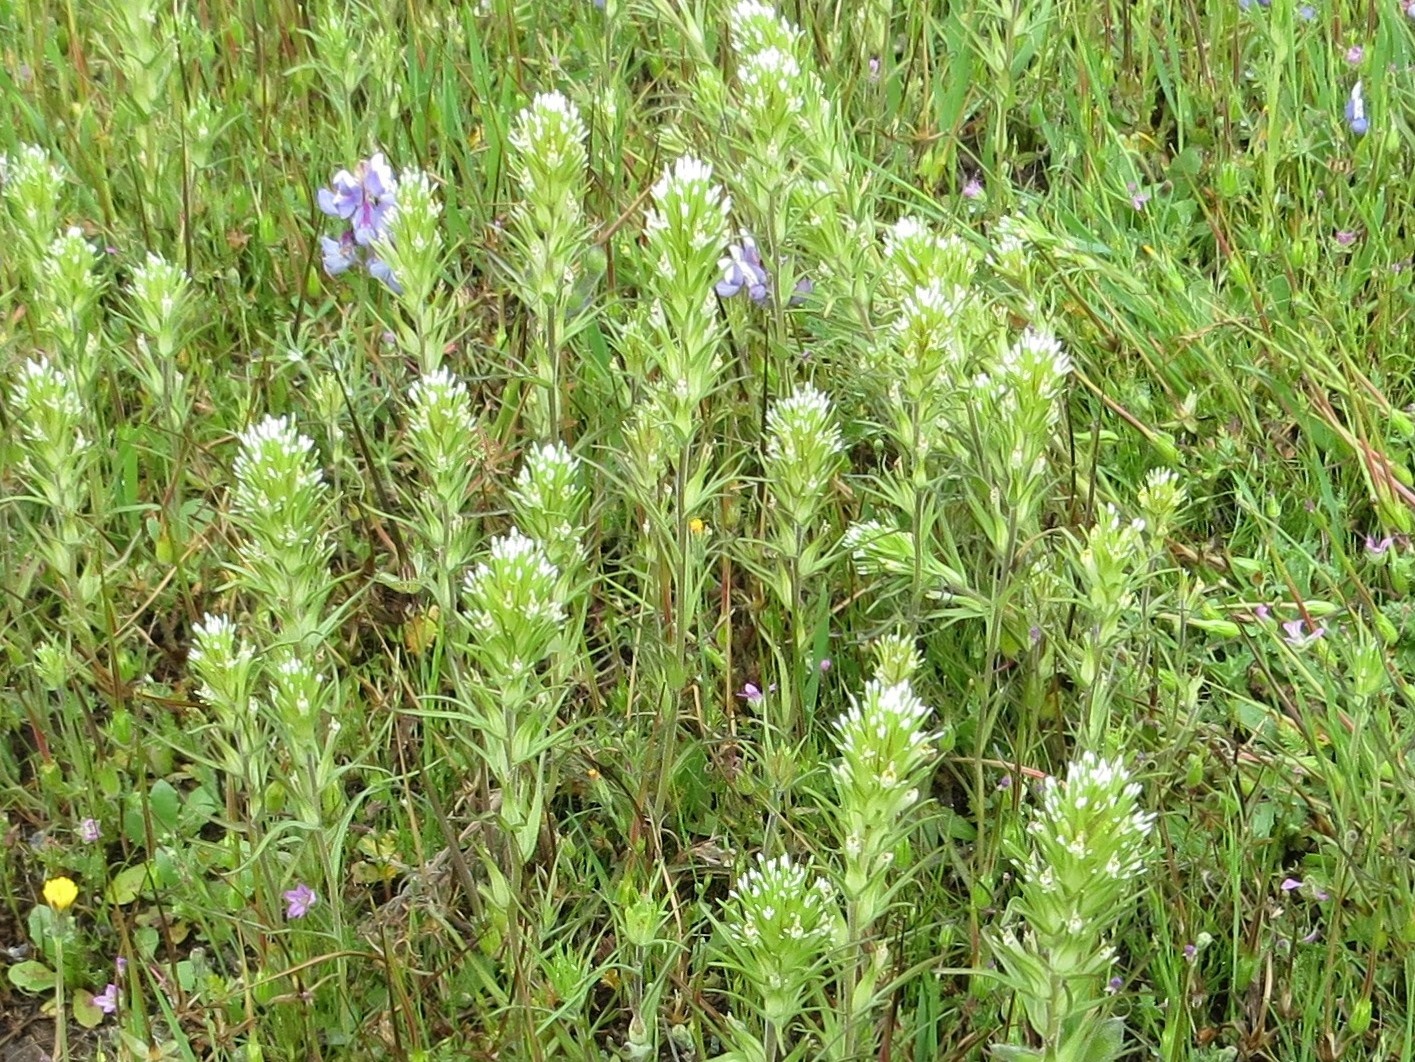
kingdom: Plantae
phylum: Tracheophyta
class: Magnoliopsida
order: Lamiales
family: Orobanchaceae
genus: Castilleja
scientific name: Castilleja attenuata
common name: Valley tassels
